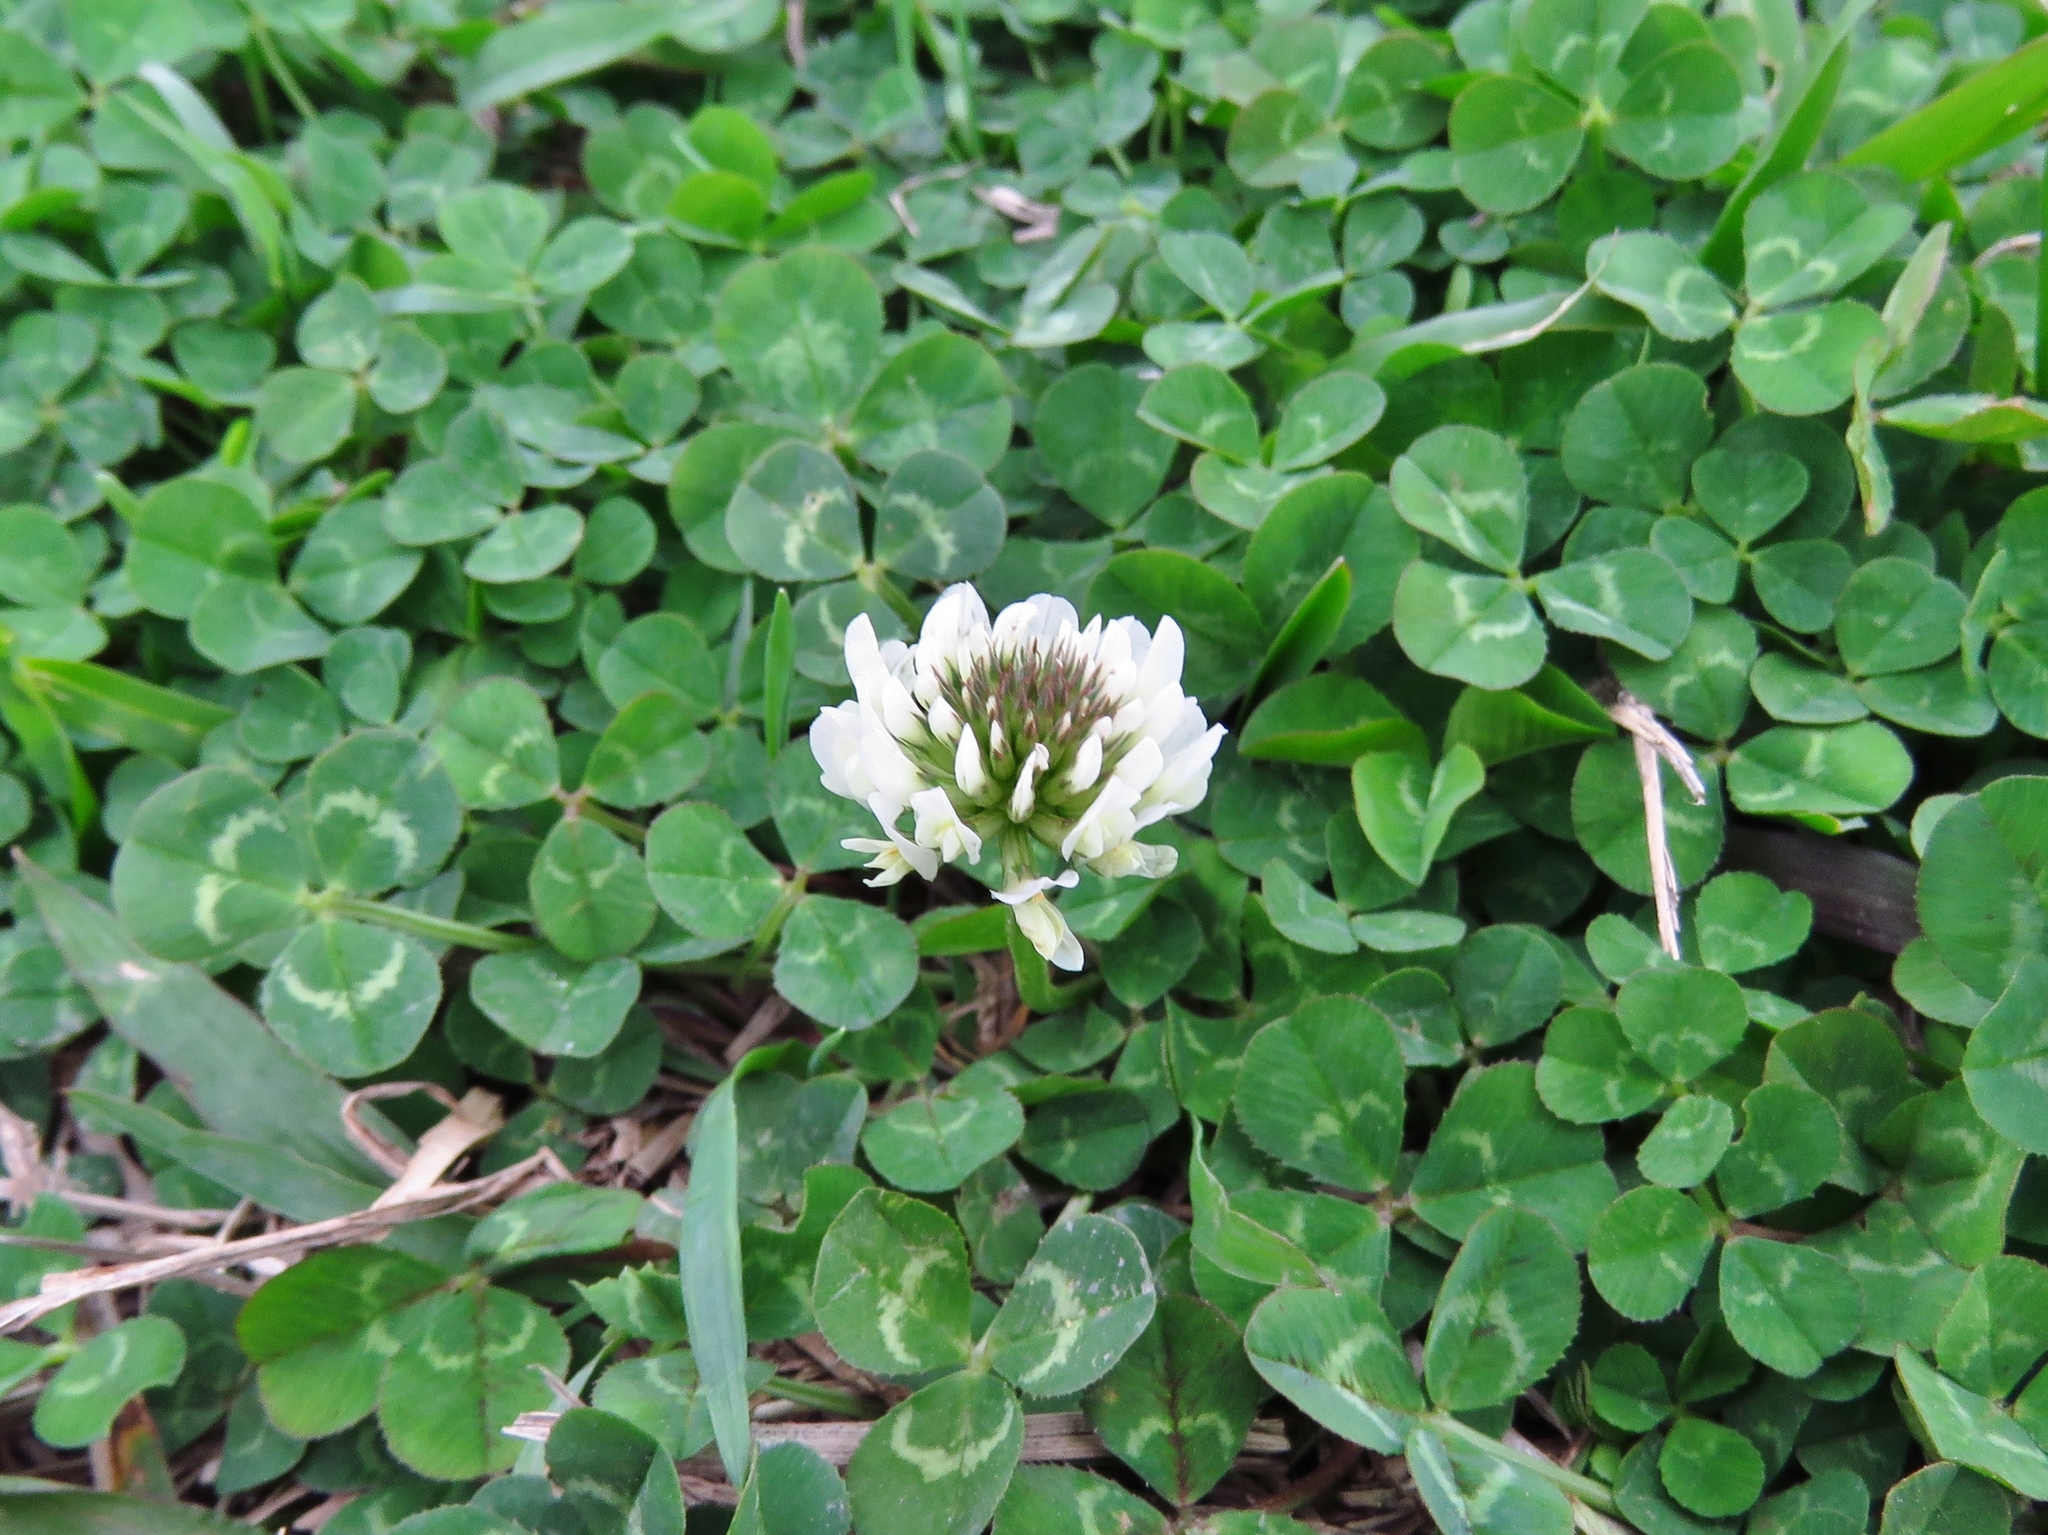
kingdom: Plantae
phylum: Tracheophyta
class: Magnoliopsida
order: Fabales
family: Fabaceae
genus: Trifolium
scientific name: Trifolium repens
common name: White clover
